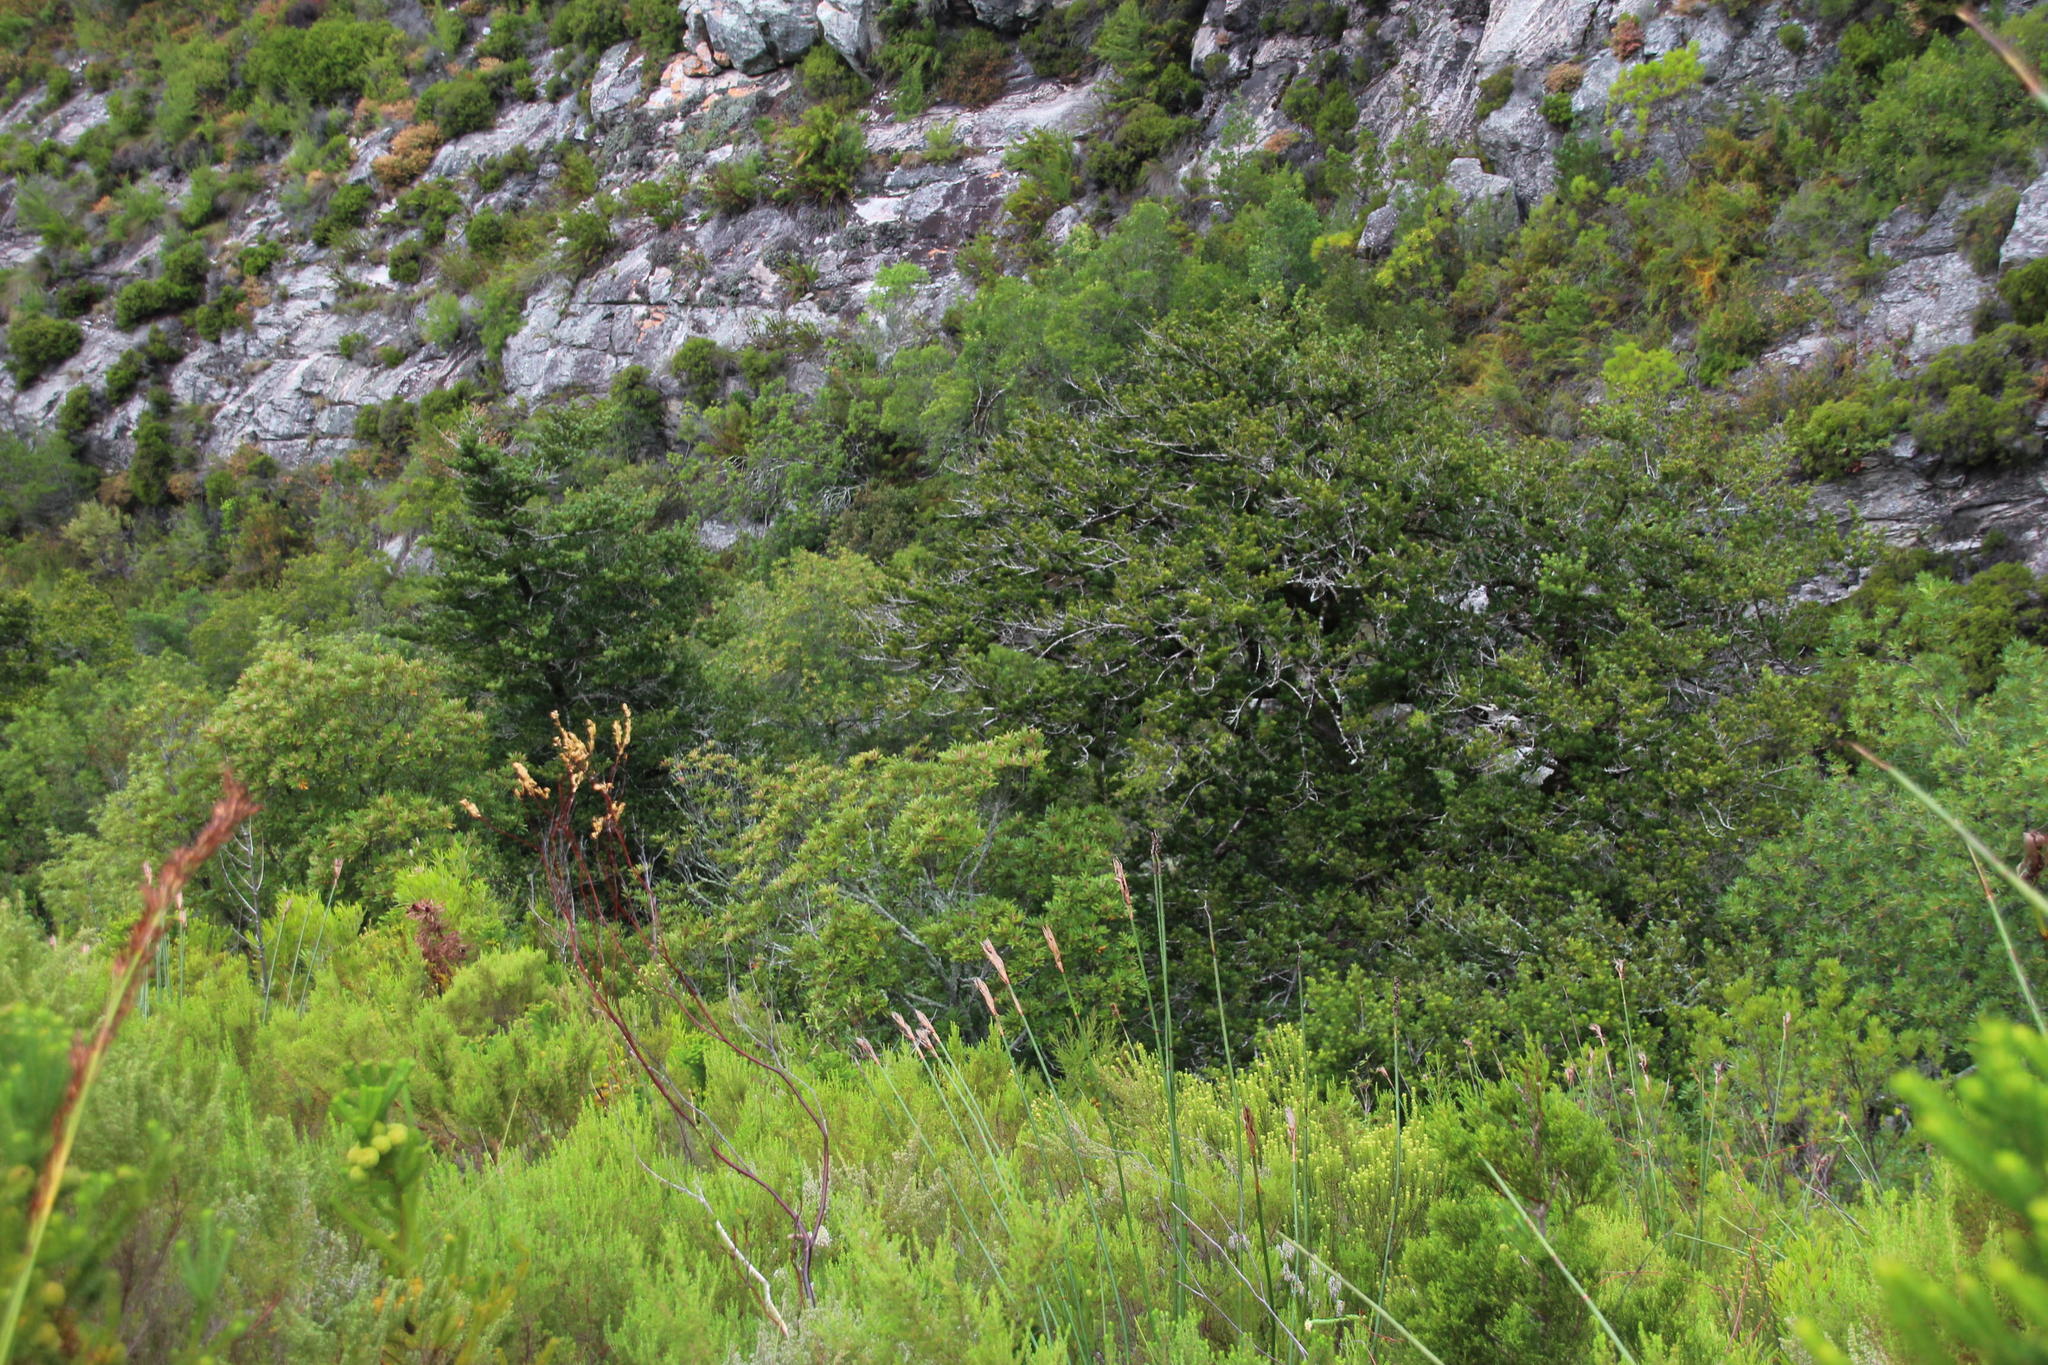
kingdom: Plantae
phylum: Tracheophyta
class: Pinopsida
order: Pinales
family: Podocarpaceae
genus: Podocarpus
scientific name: Podocarpus latifolius
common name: True yellowwood
